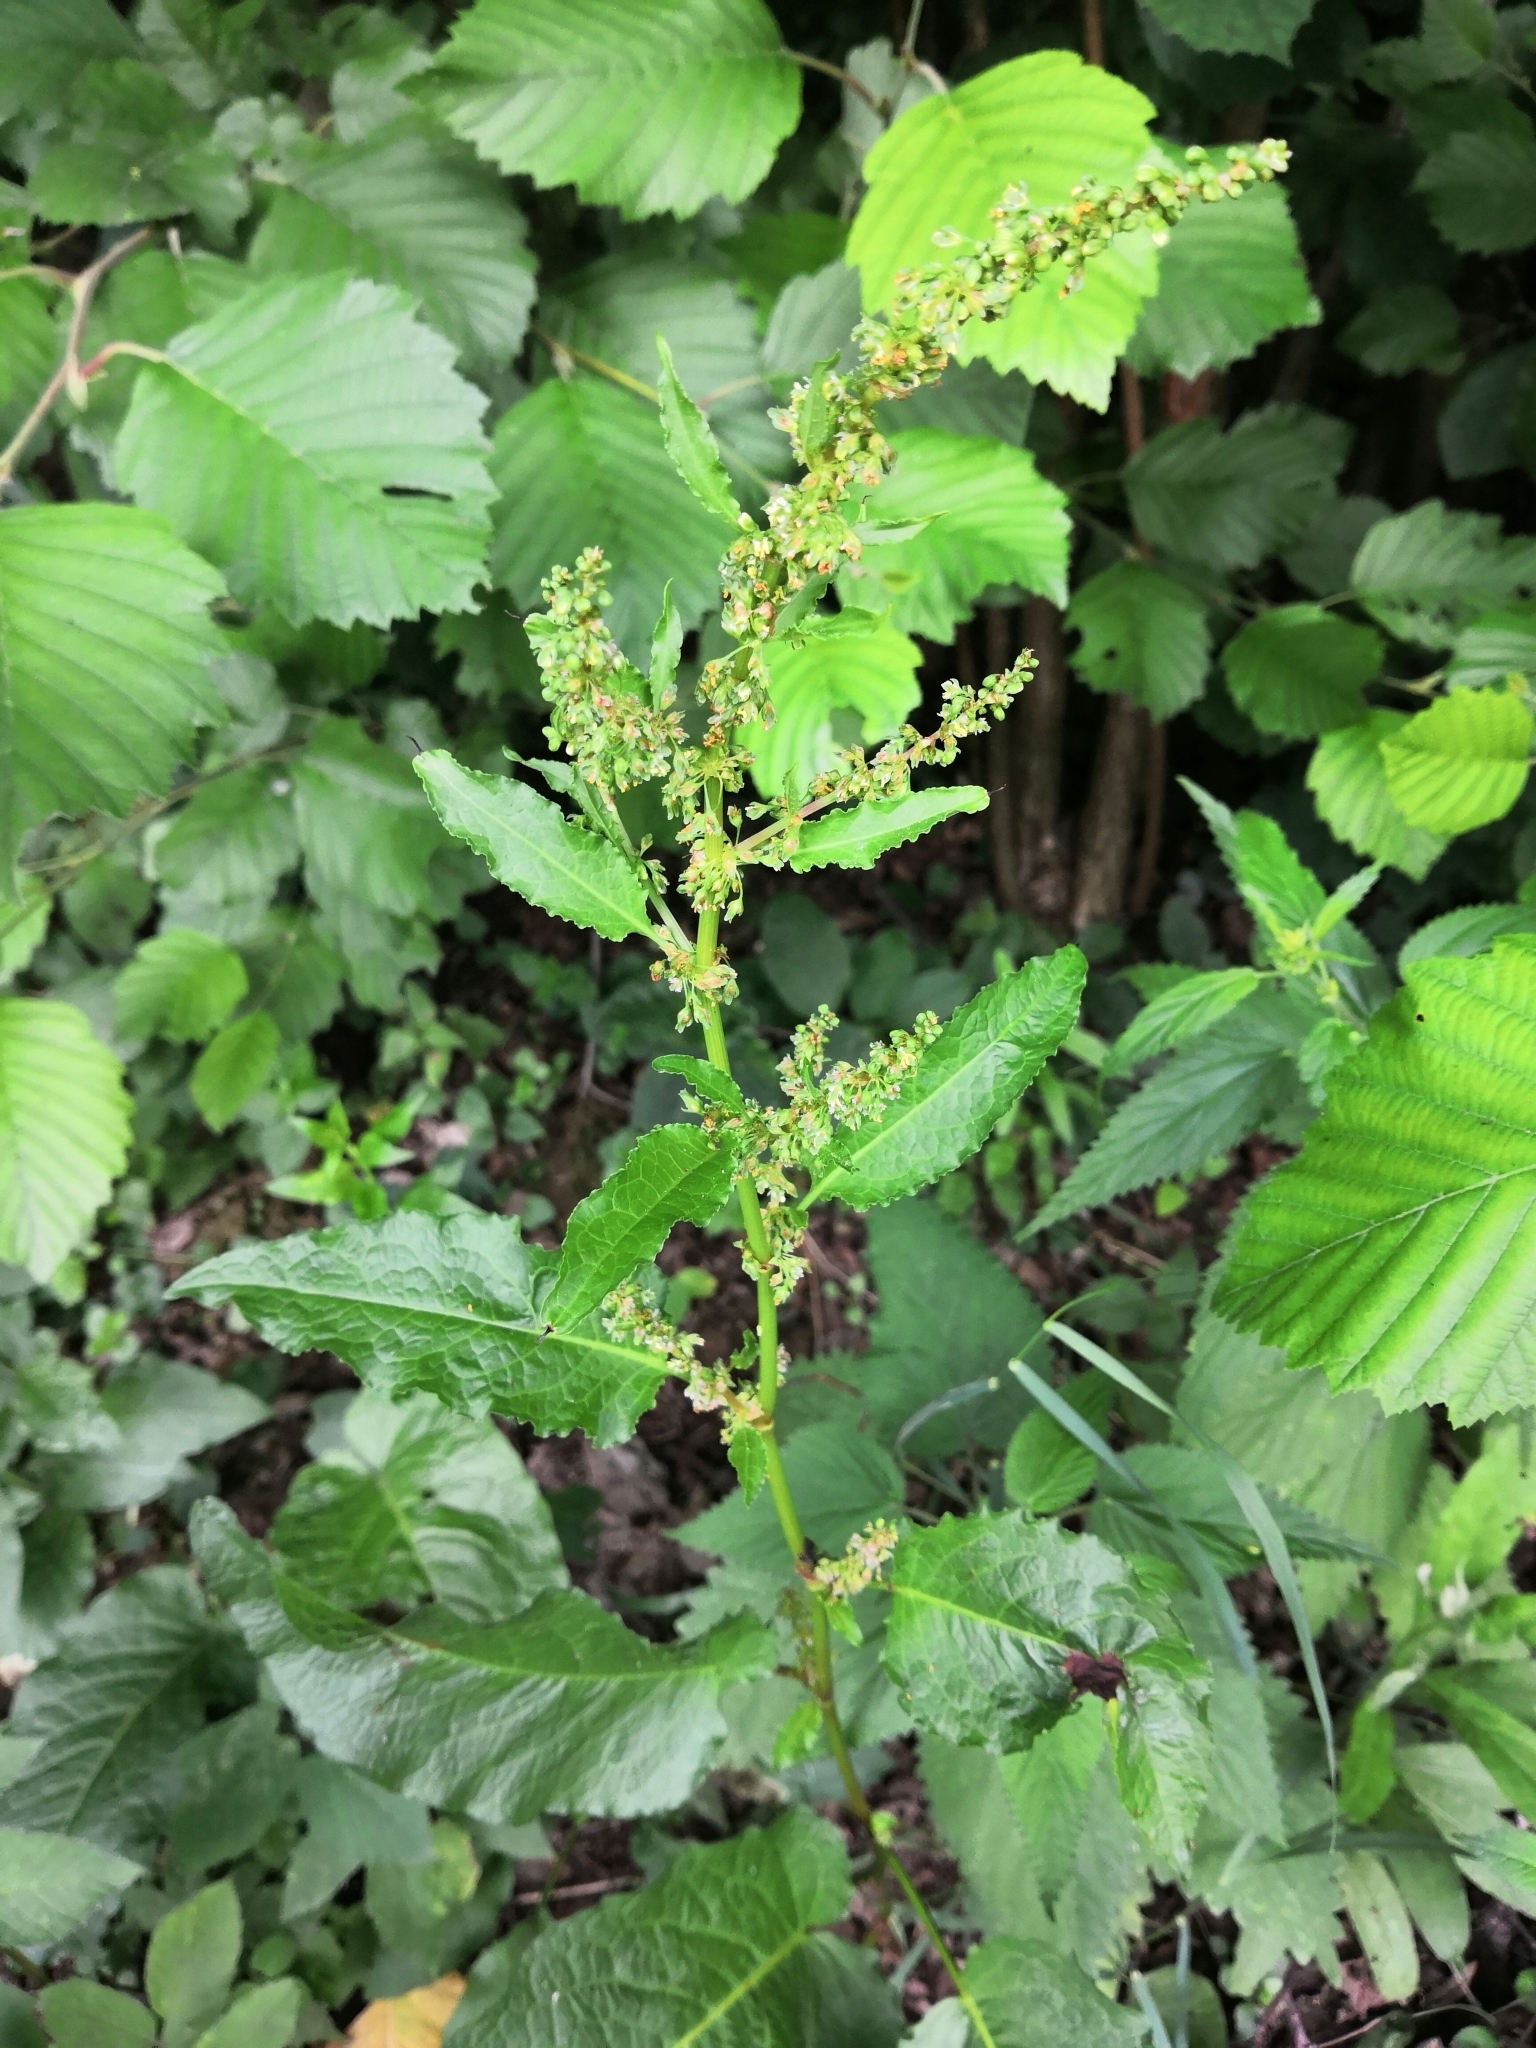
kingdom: Plantae
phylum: Tracheophyta
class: Magnoliopsida
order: Caryophyllales
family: Polygonaceae
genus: Rumex
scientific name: Rumex obtusifolius
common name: Bitter dock
